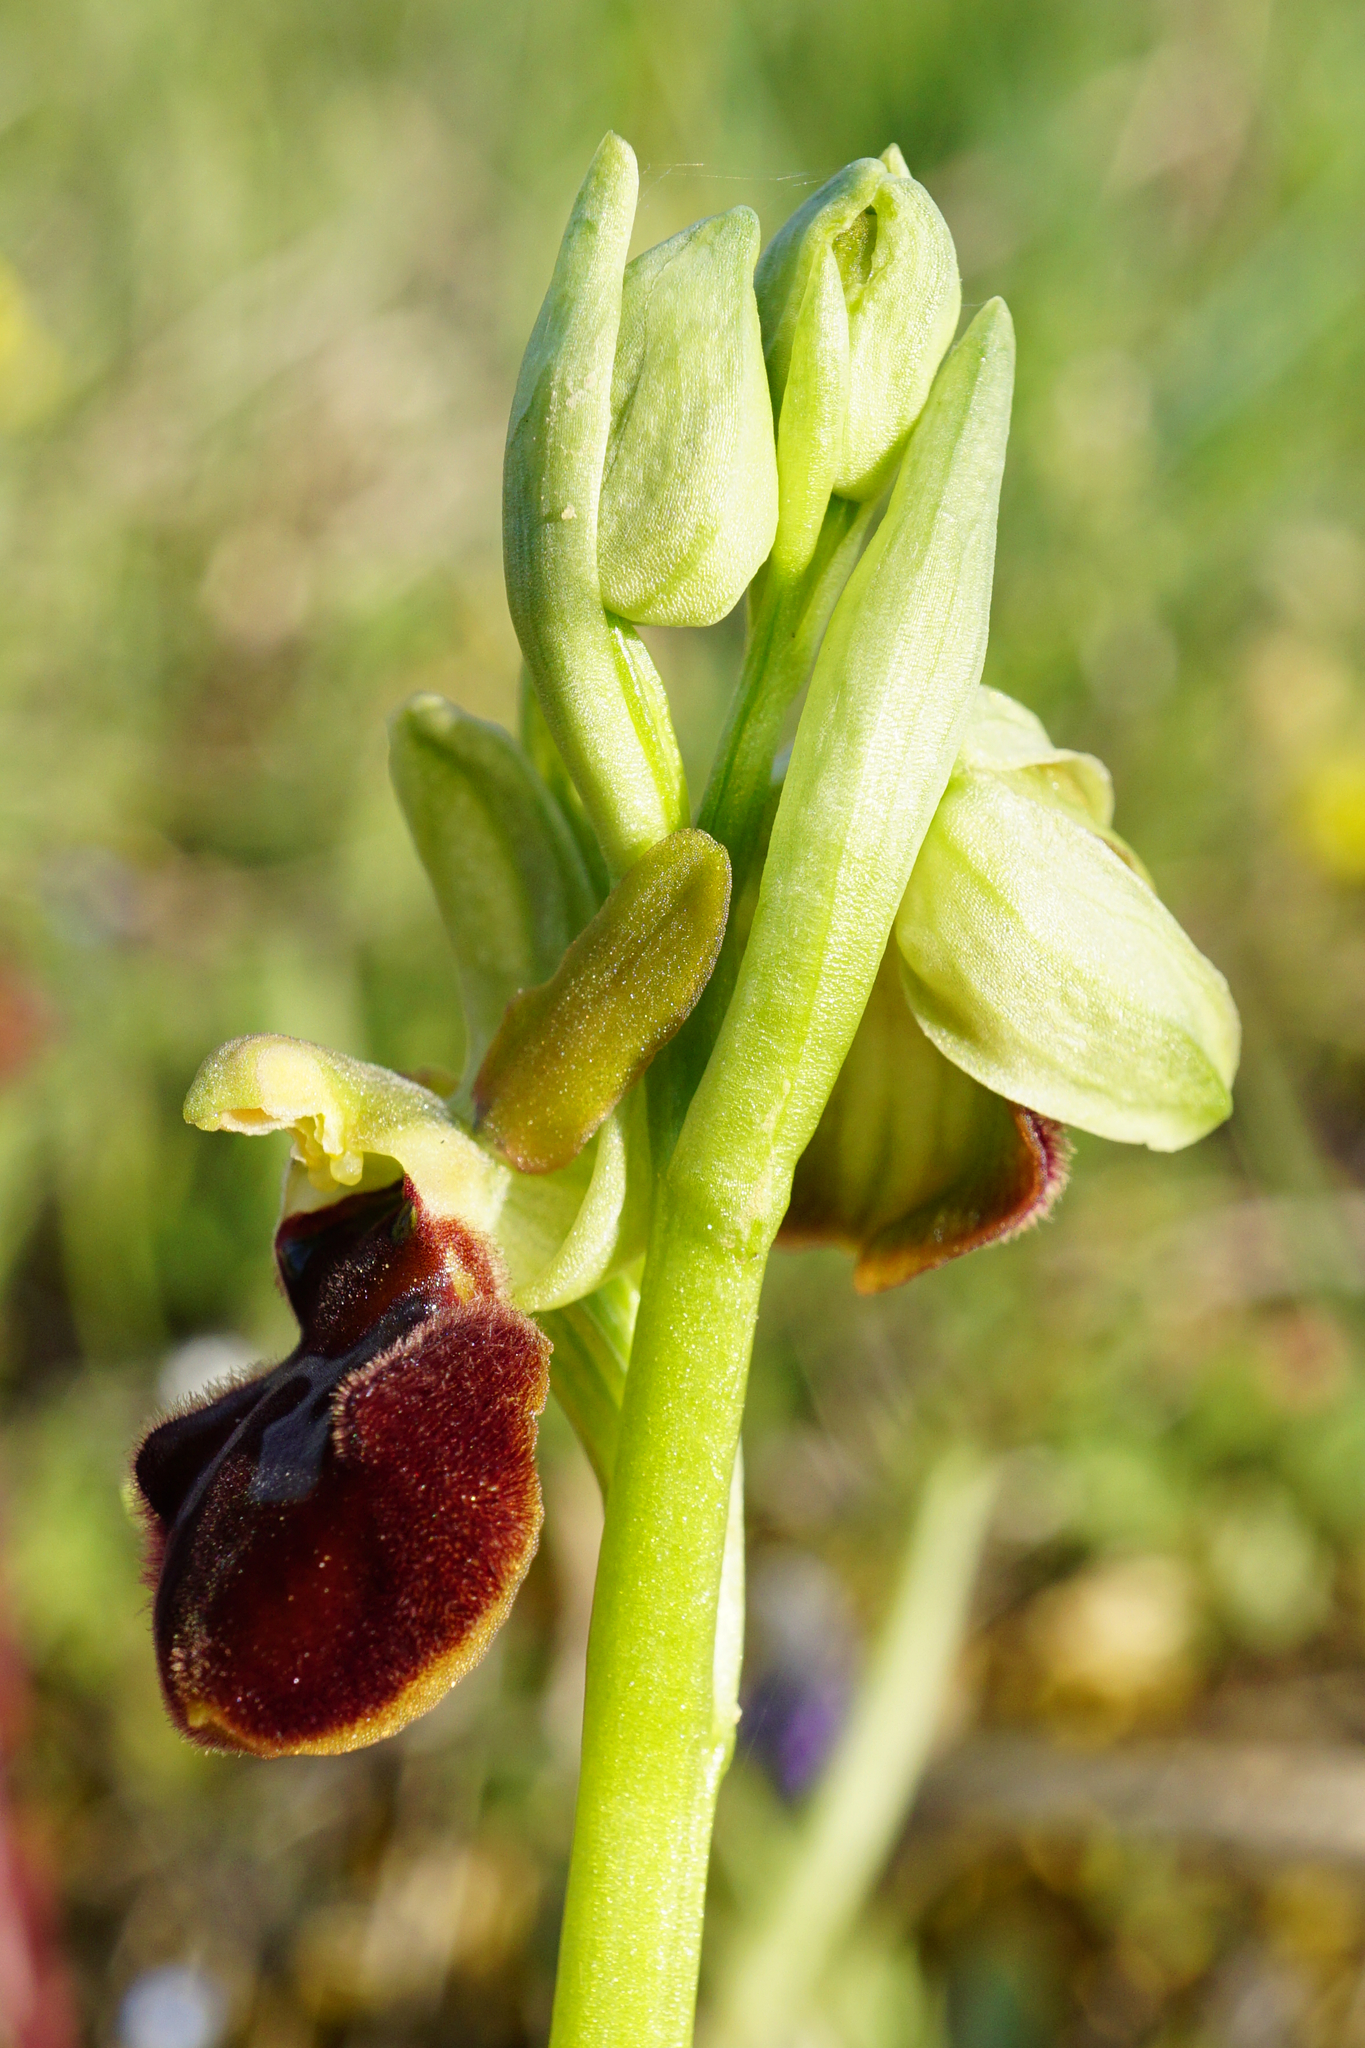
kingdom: Plantae
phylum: Tracheophyta
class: Liliopsida
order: Asparagales
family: Orchidaceae
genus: Ophrys
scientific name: Ophrys sphegodes
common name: Early spider-orchid
